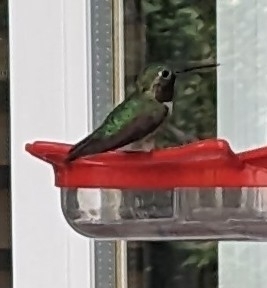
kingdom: Animalia
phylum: Chordata
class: Aves
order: Apodiformes
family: Trochilidae
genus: Selasphorus
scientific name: Selasphorus platycercus
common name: Broad-tailed hummingbird
